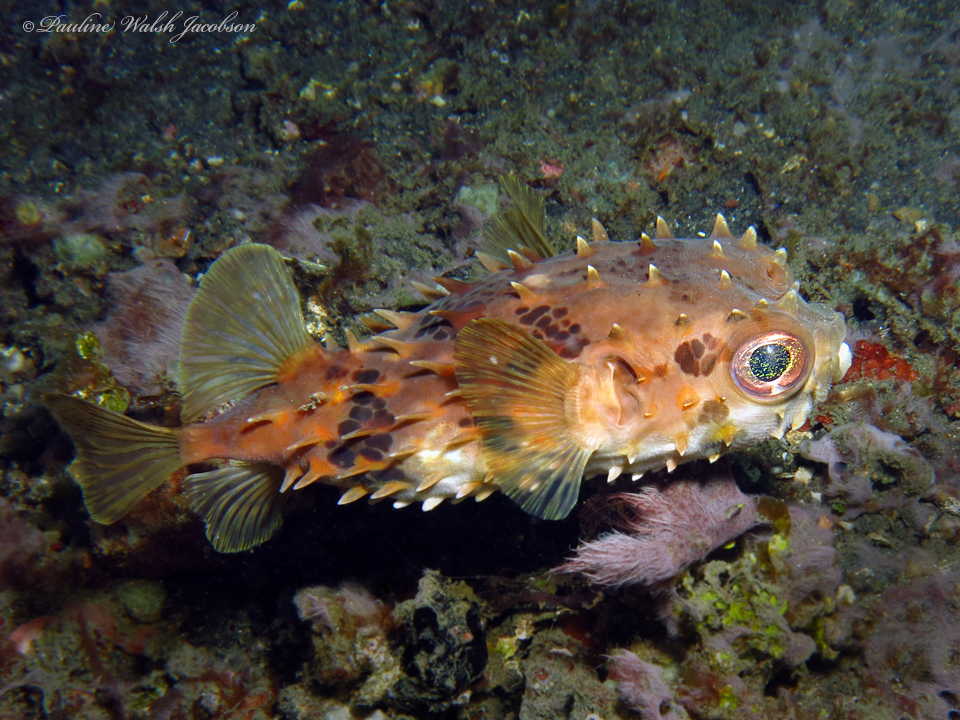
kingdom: Animalia
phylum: Chordata
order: Tetraodontiformes
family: Diodontidae
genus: Cyclichthys
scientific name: Cyclichthys orbicularis
